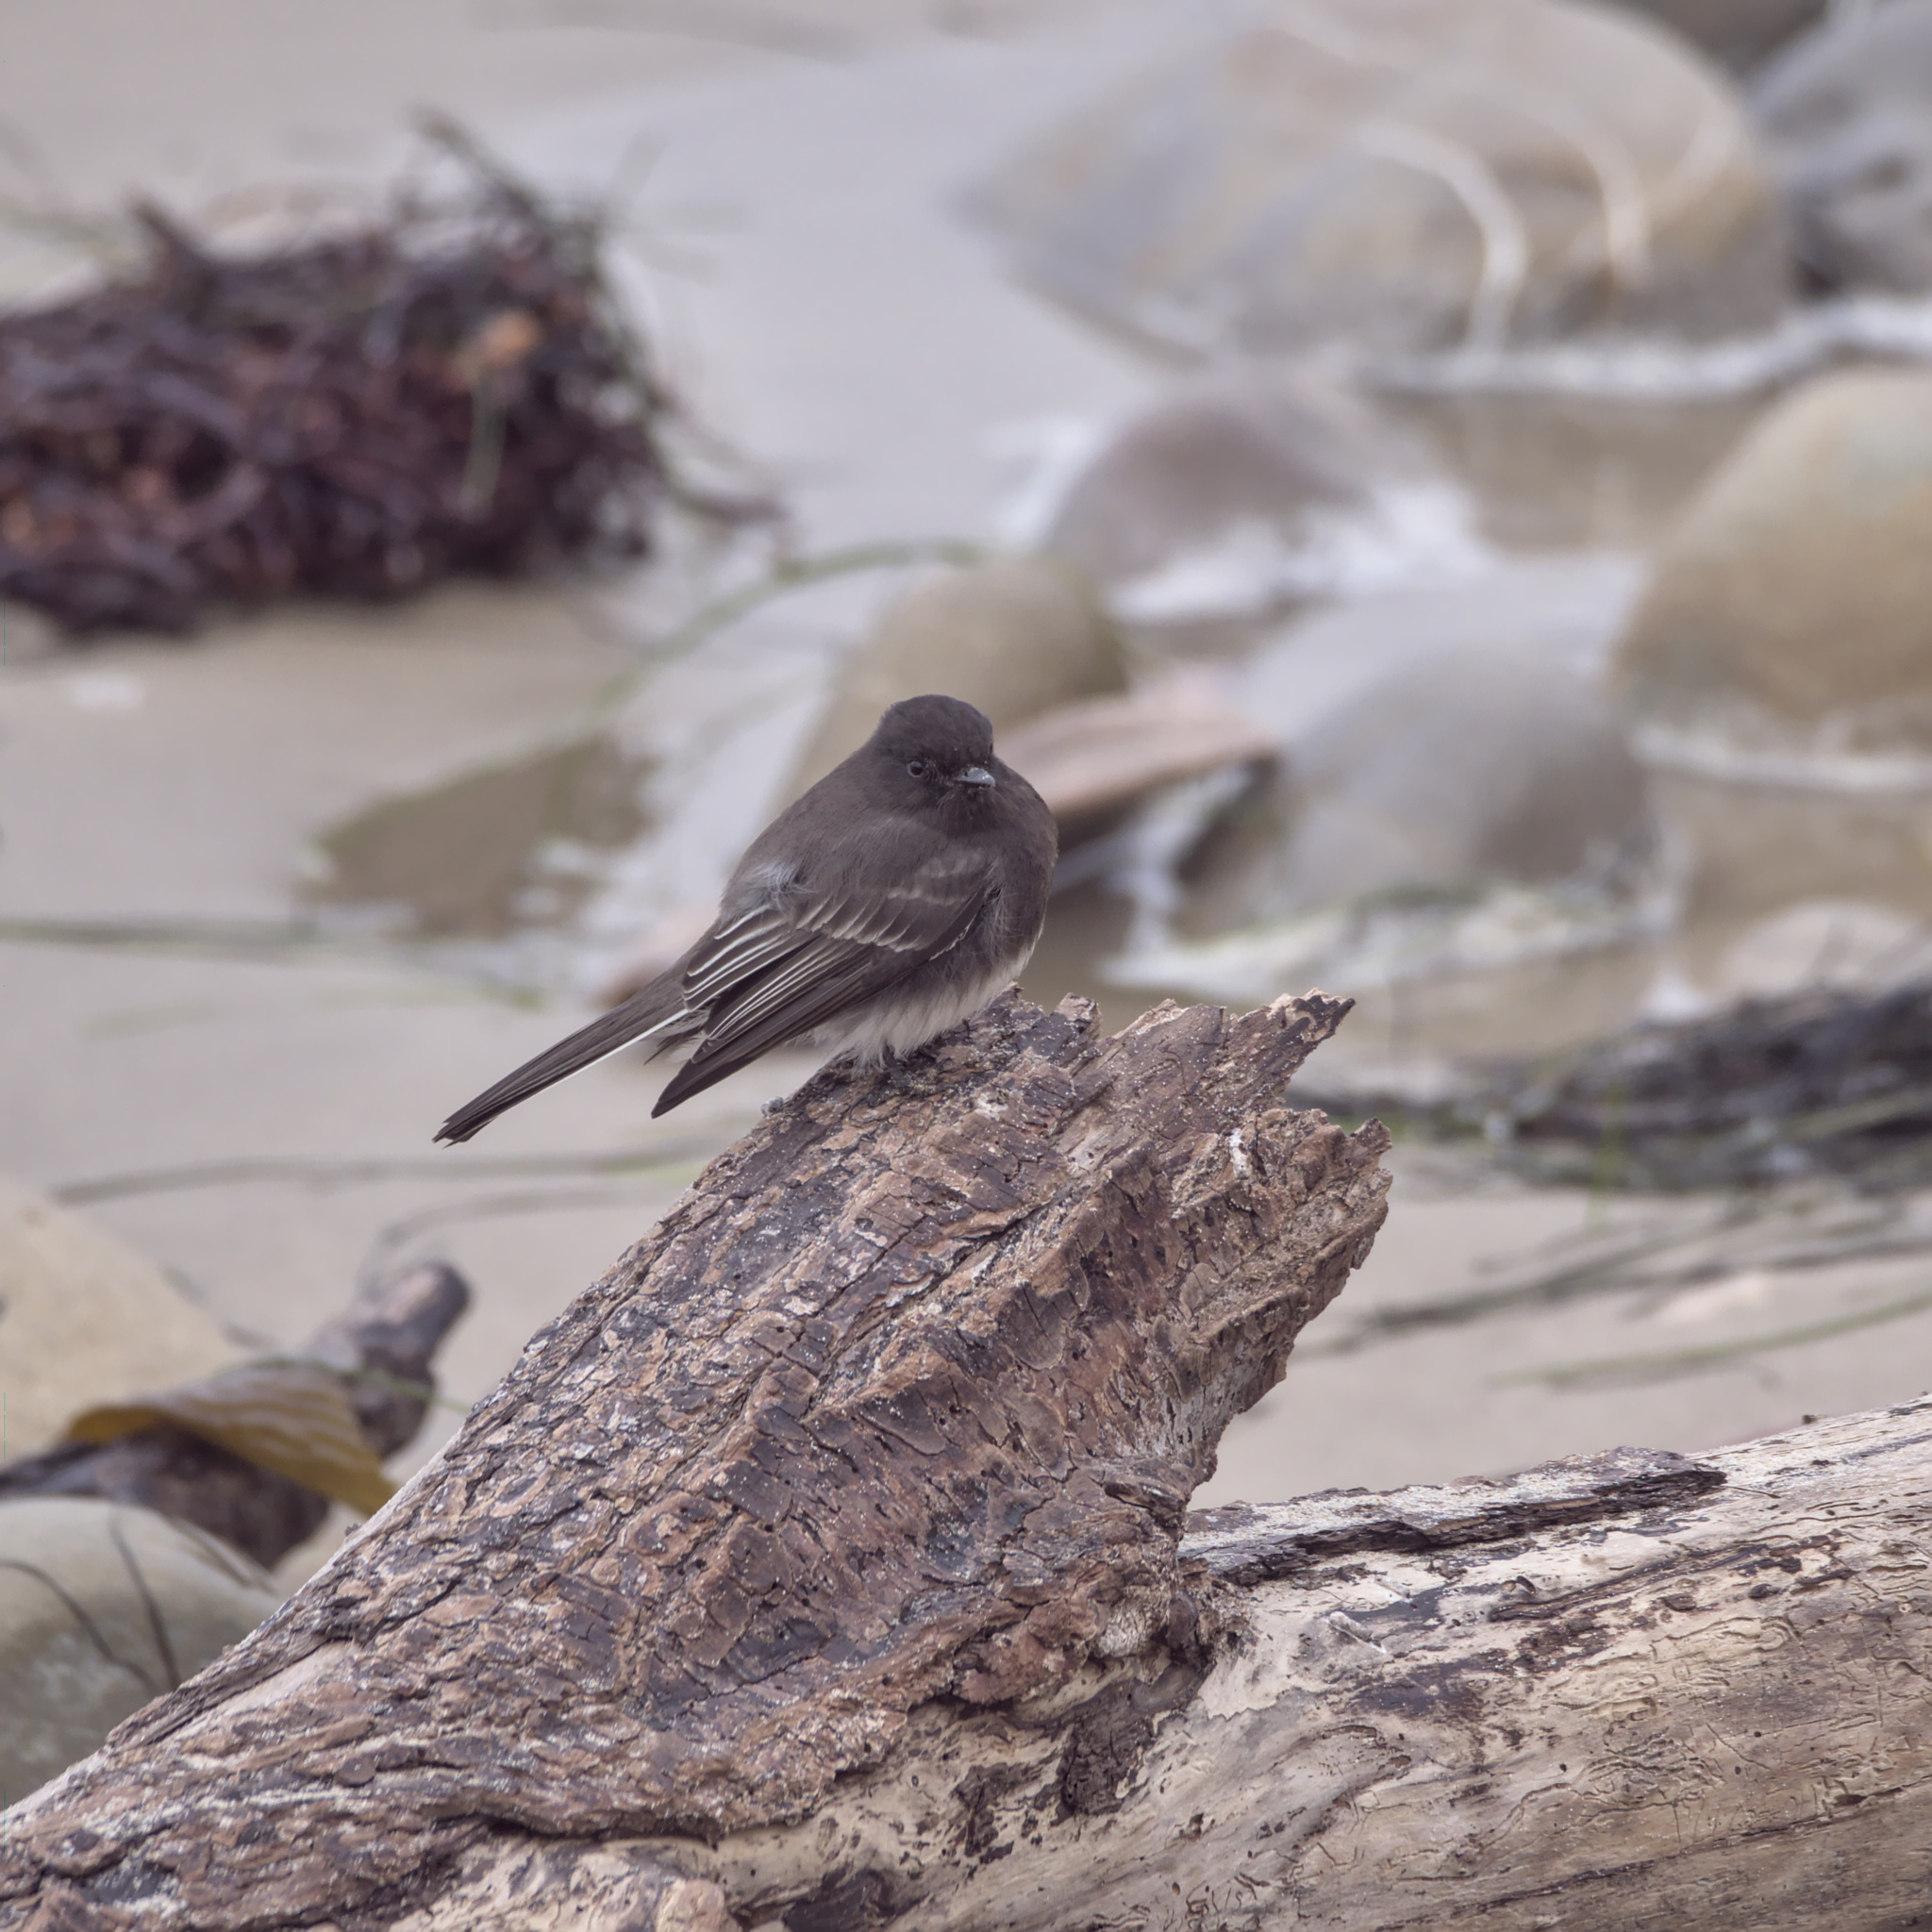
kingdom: Animalia
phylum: Chordata
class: Aves
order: Passeriformes
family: Tyrannidae
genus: Sayornis
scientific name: Sayornis nigricans
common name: Black phoebe
